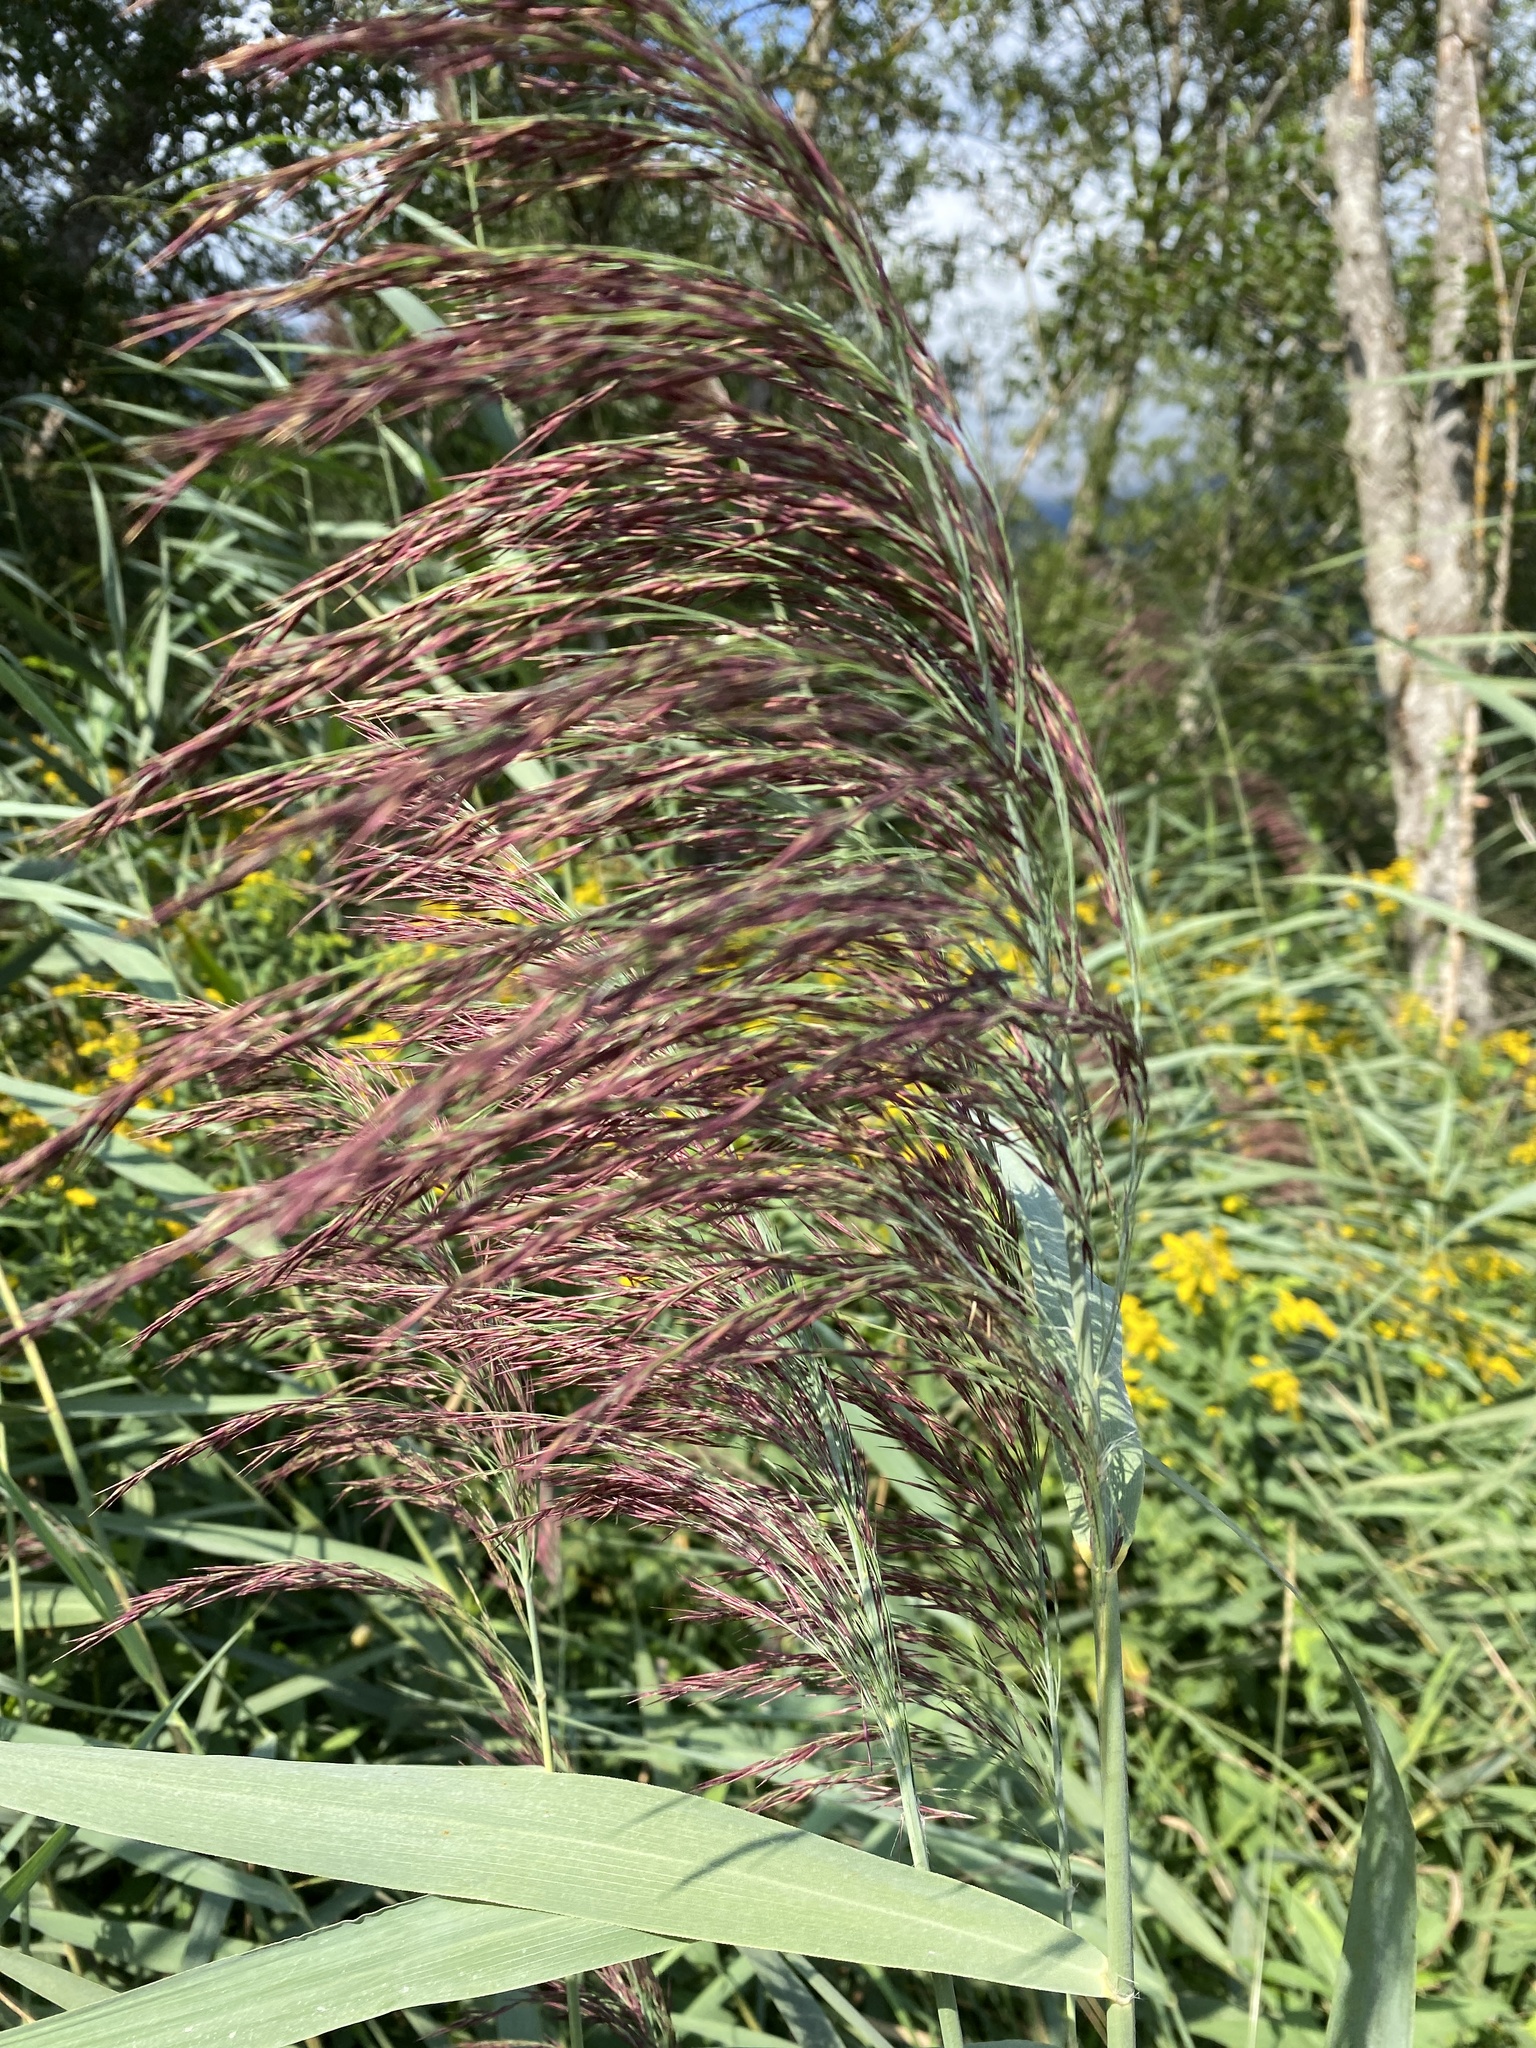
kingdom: Plantae
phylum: Tracheophyta
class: Liliopsida
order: Poales
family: Poaceae
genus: Phragmites
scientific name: Phragmites australis
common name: Common reed
